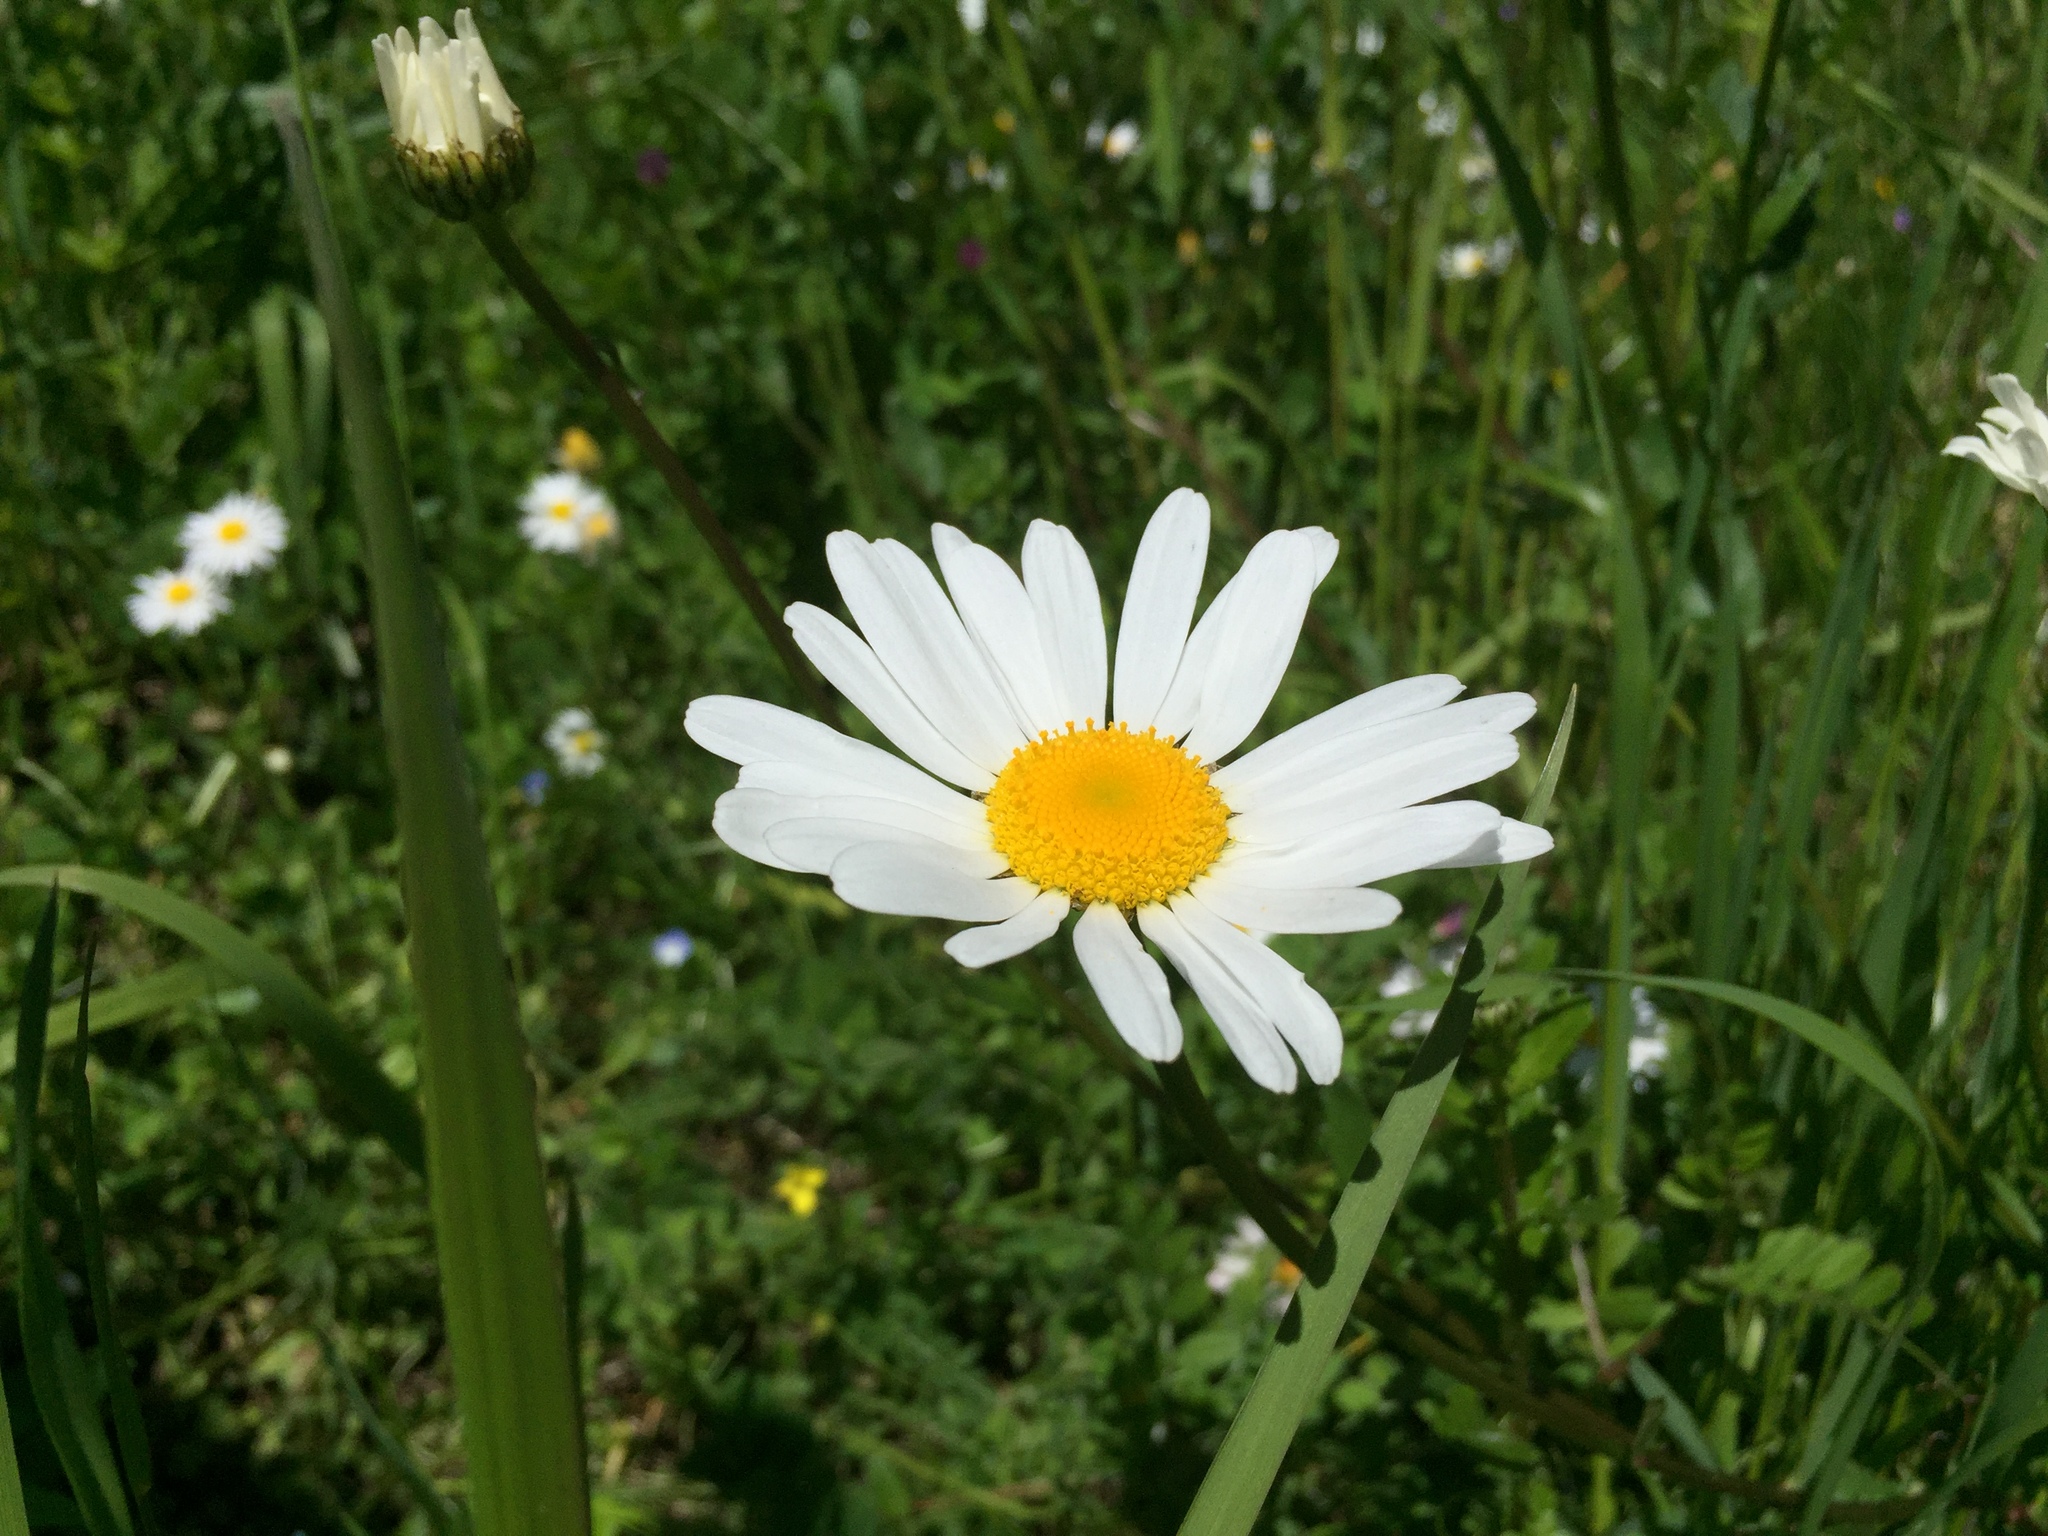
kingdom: Plantae
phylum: Tracheophyta
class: Magnoliopsida
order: Asterales
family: Asteraceae
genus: Leucanthemum
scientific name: Leucanthemum vulgare
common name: Oxeye daisy
